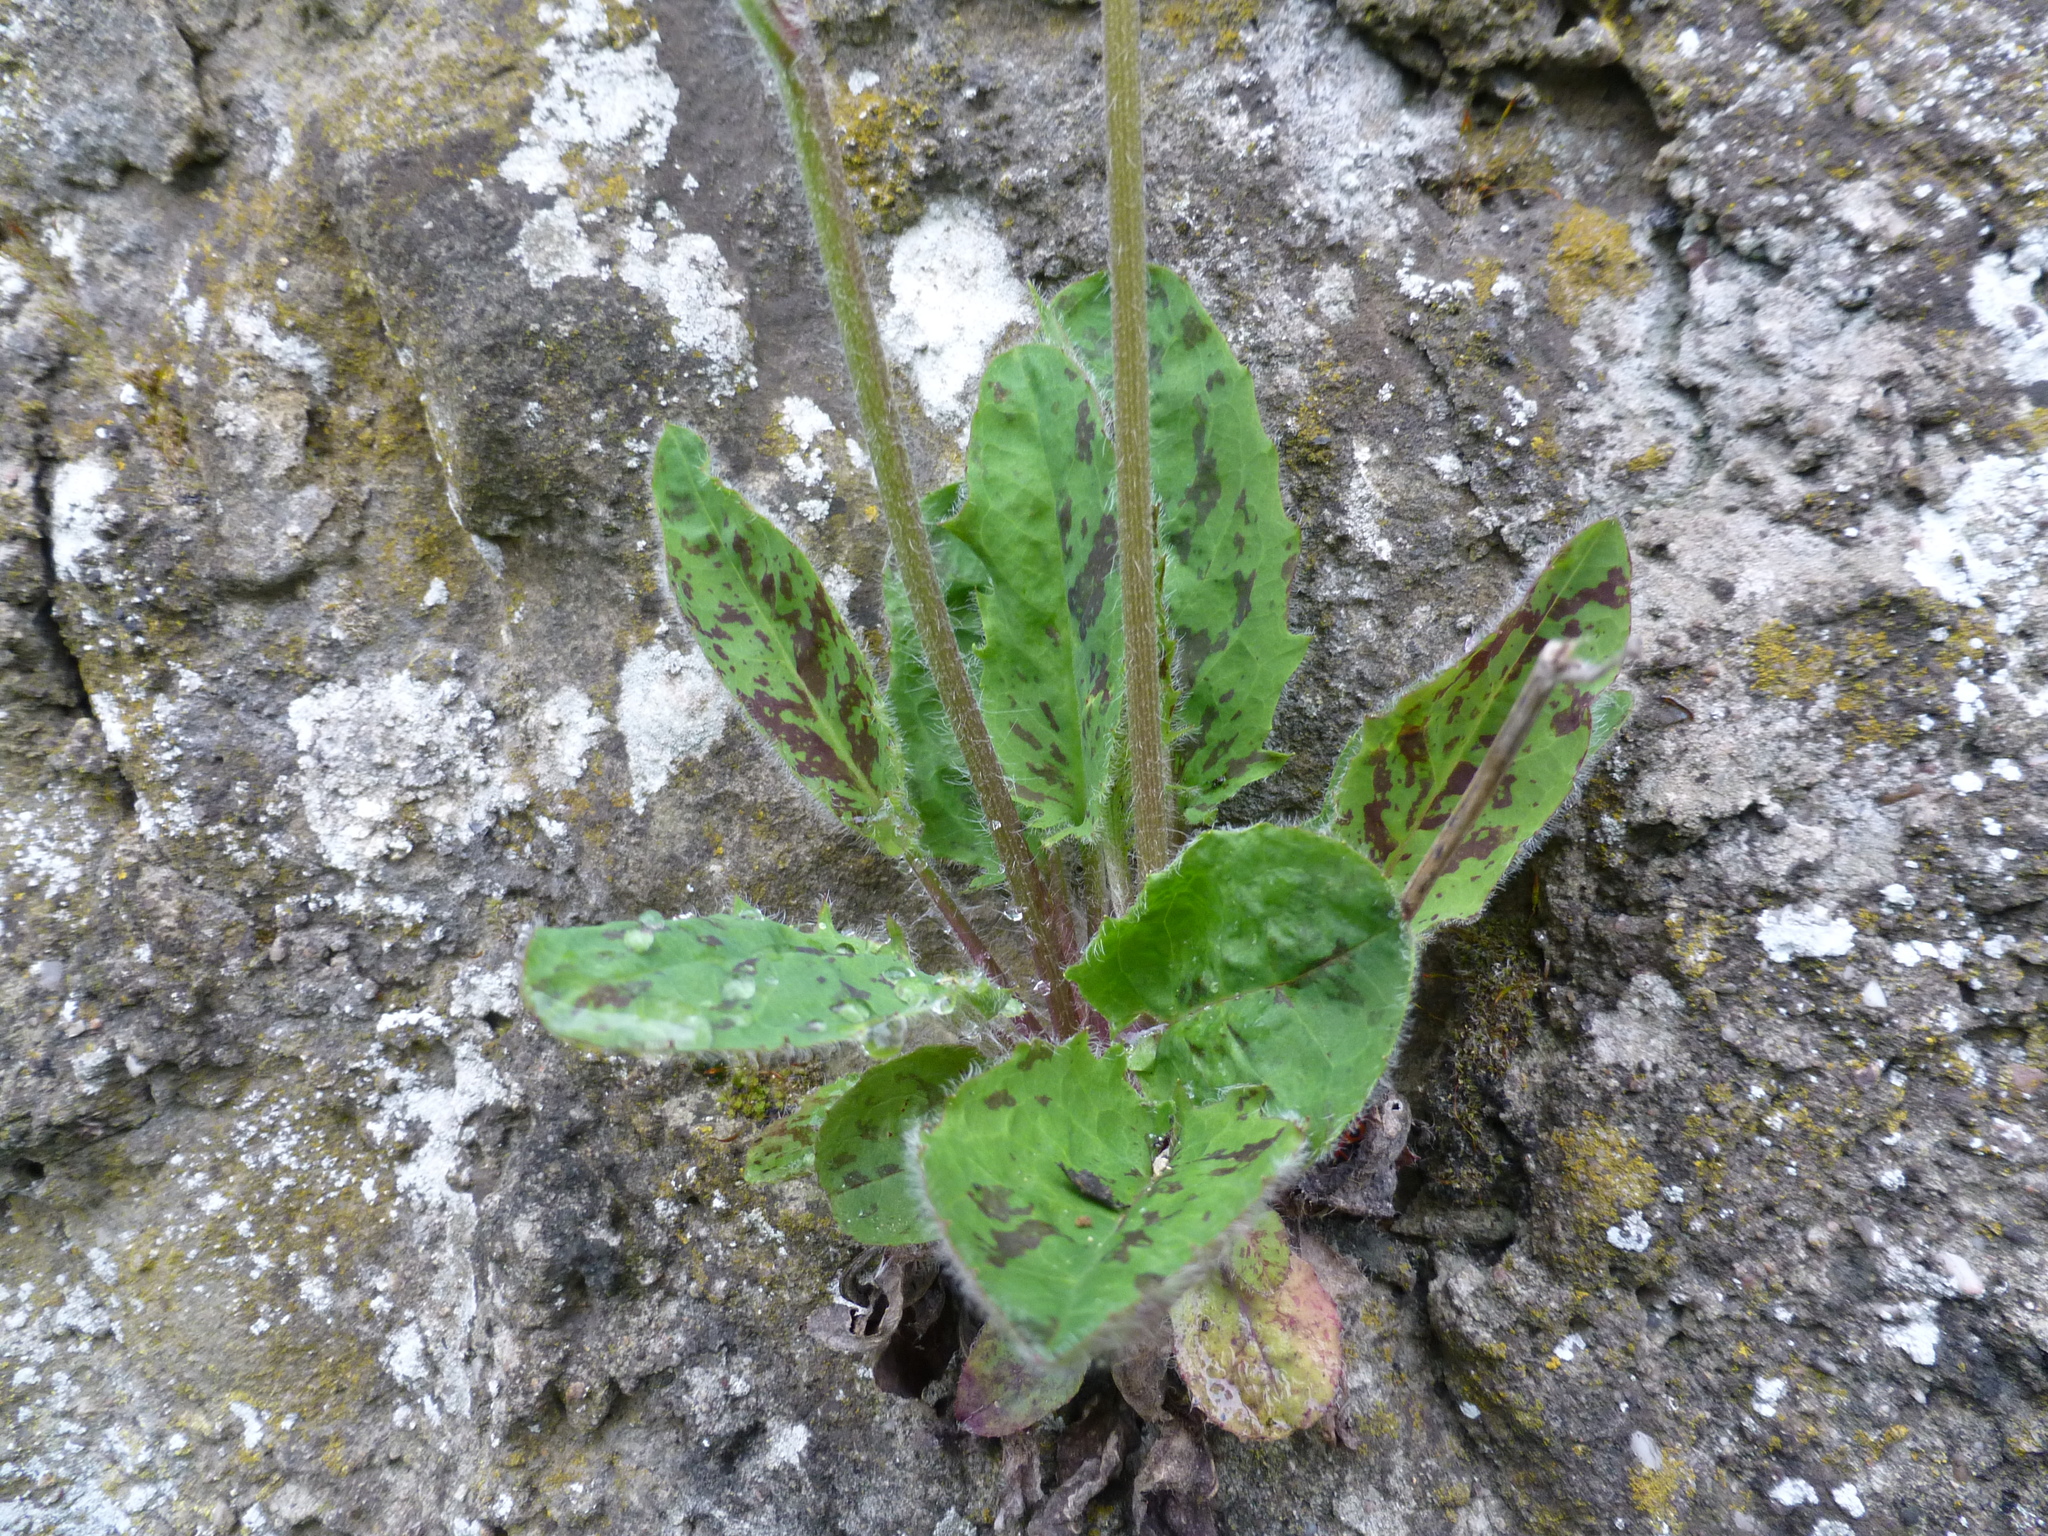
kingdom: Plantae
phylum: Tracheophyta
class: Magnoliopsida
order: Asterales
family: Asteraceae
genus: Hieracium
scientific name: Hieracium murorum
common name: Wall hawkweed
